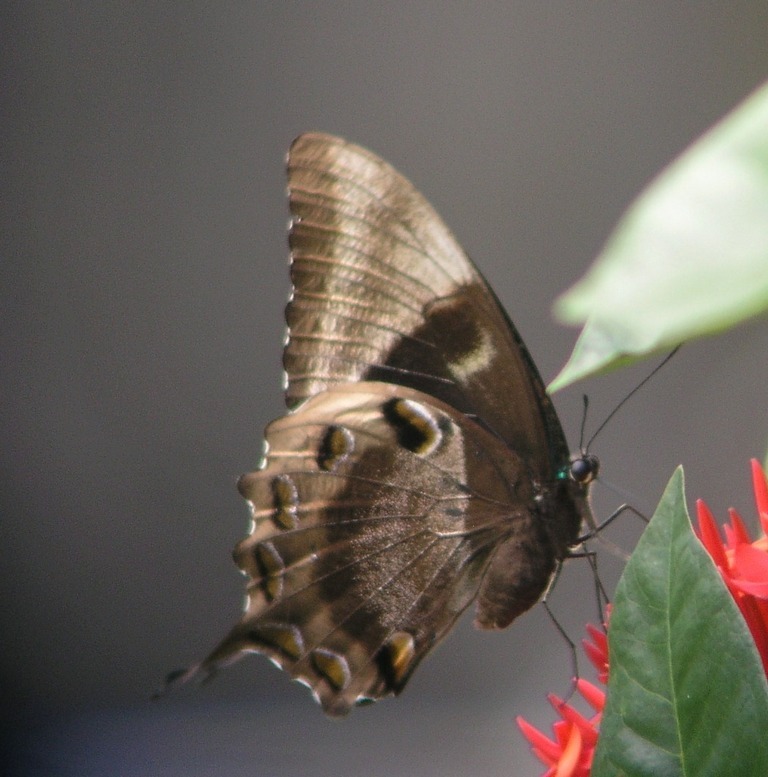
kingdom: Animalia
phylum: Arthropoda
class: Insecta
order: Lepidoptera
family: Papilionidae
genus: Papilio
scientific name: Papilio ulysses
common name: Blue emperor
